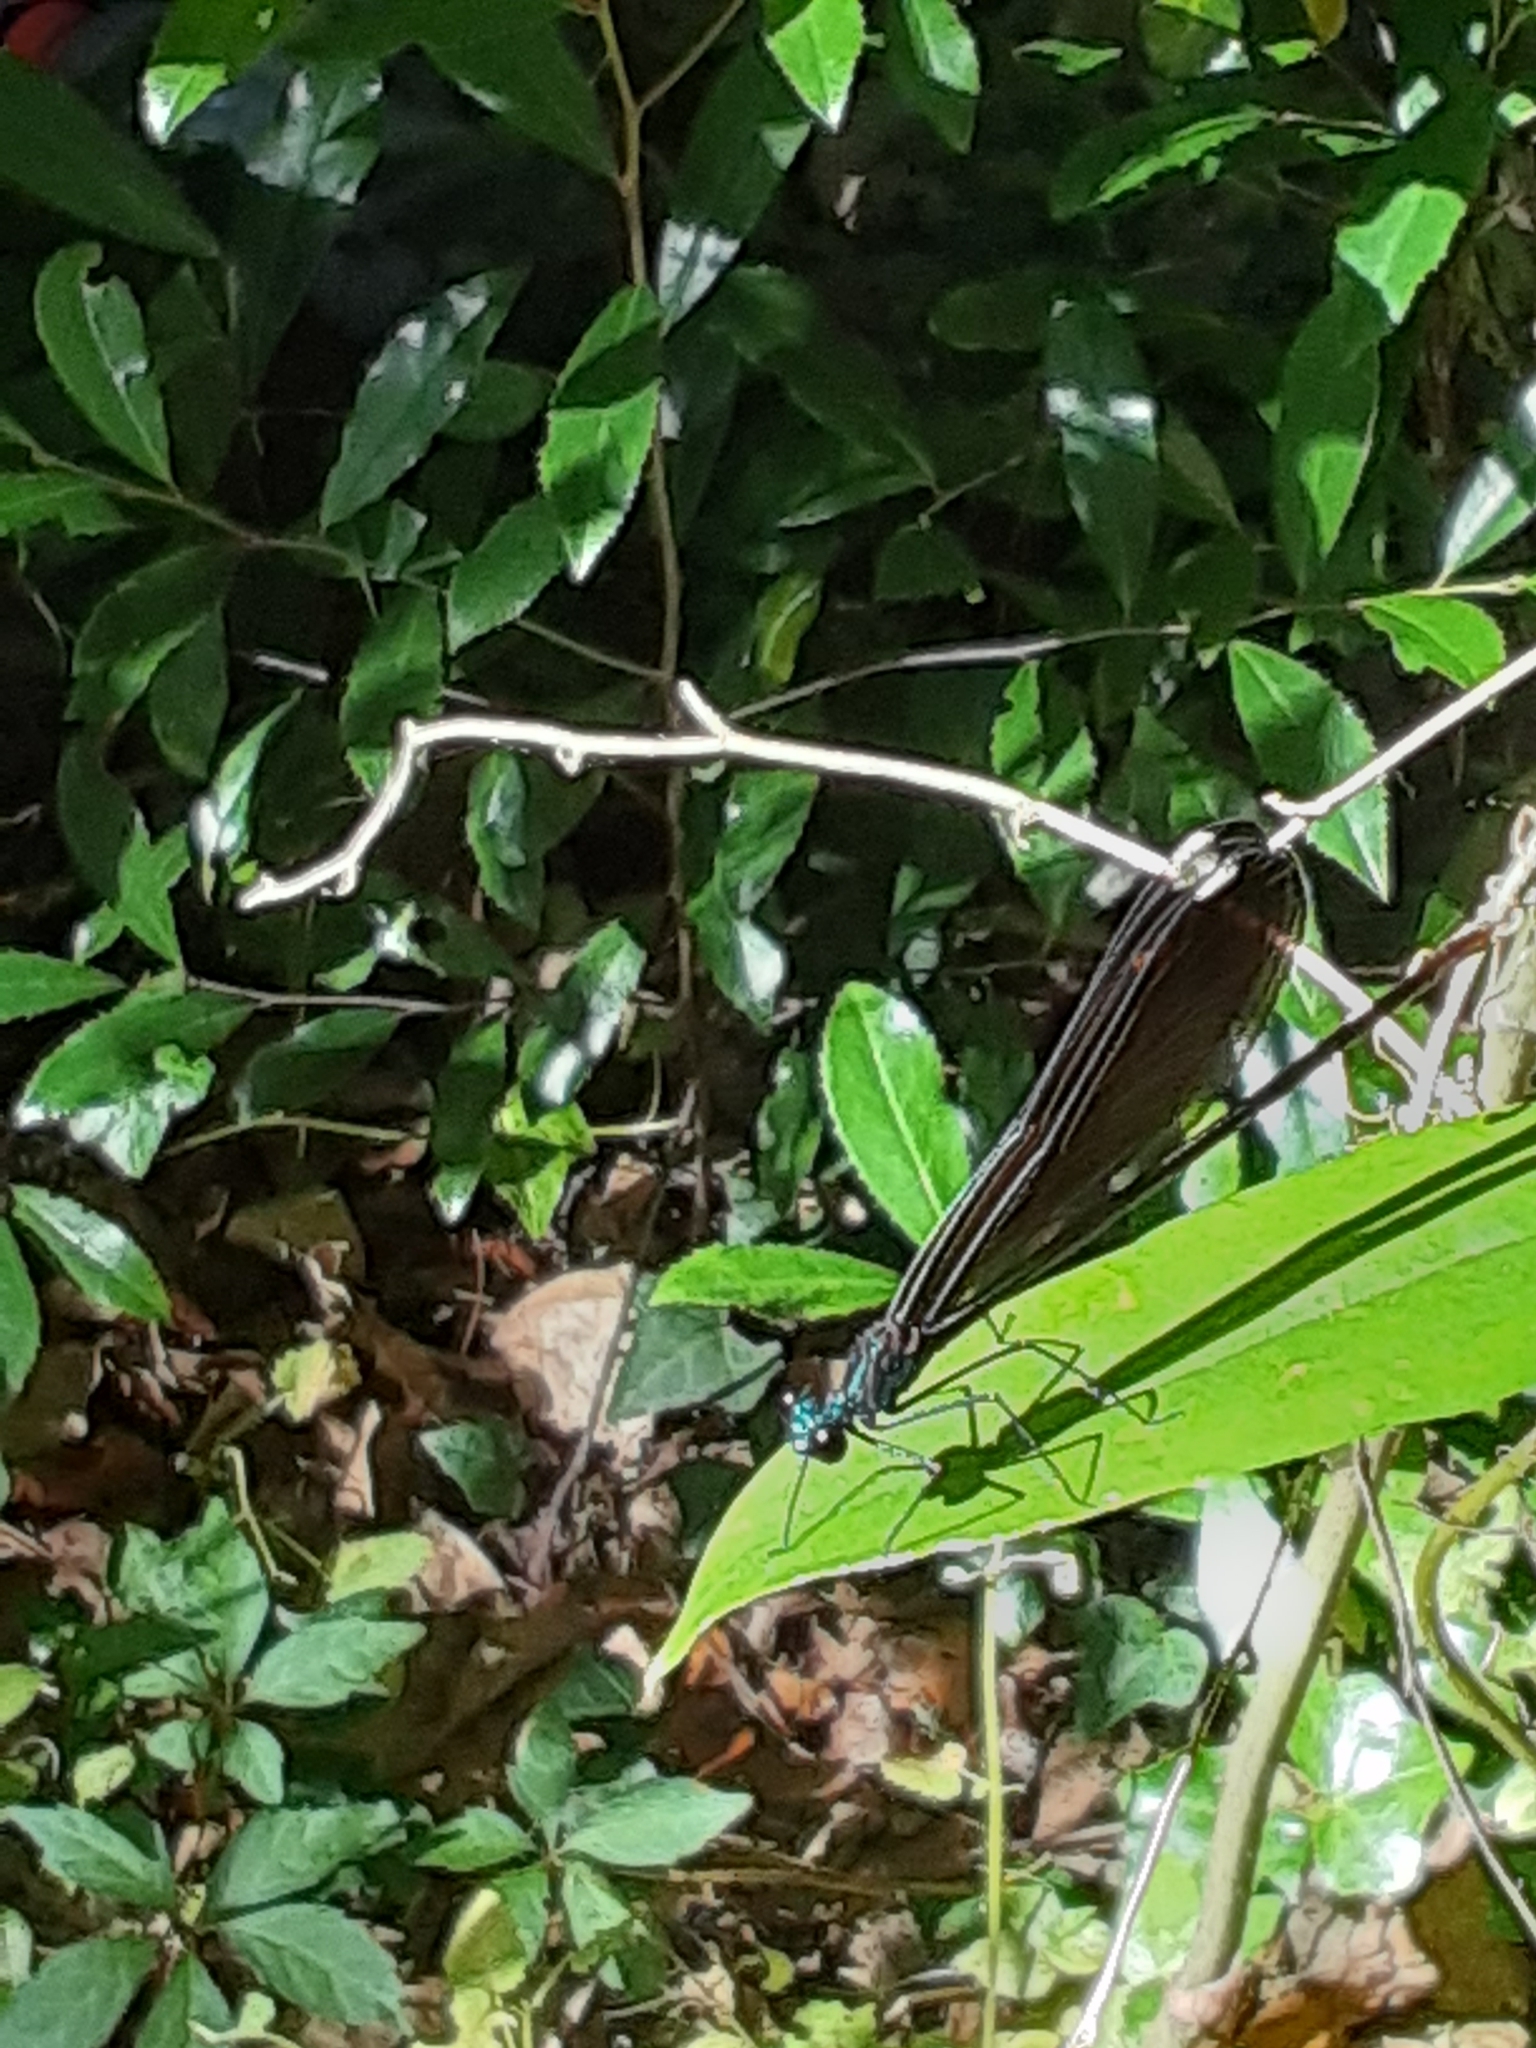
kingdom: Animalia
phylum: Arthropoda
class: Insecta
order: Odonata
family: Calopterygidae
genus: Calopteryx
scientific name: Calopteryx maculata
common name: Ebony jewelwing
